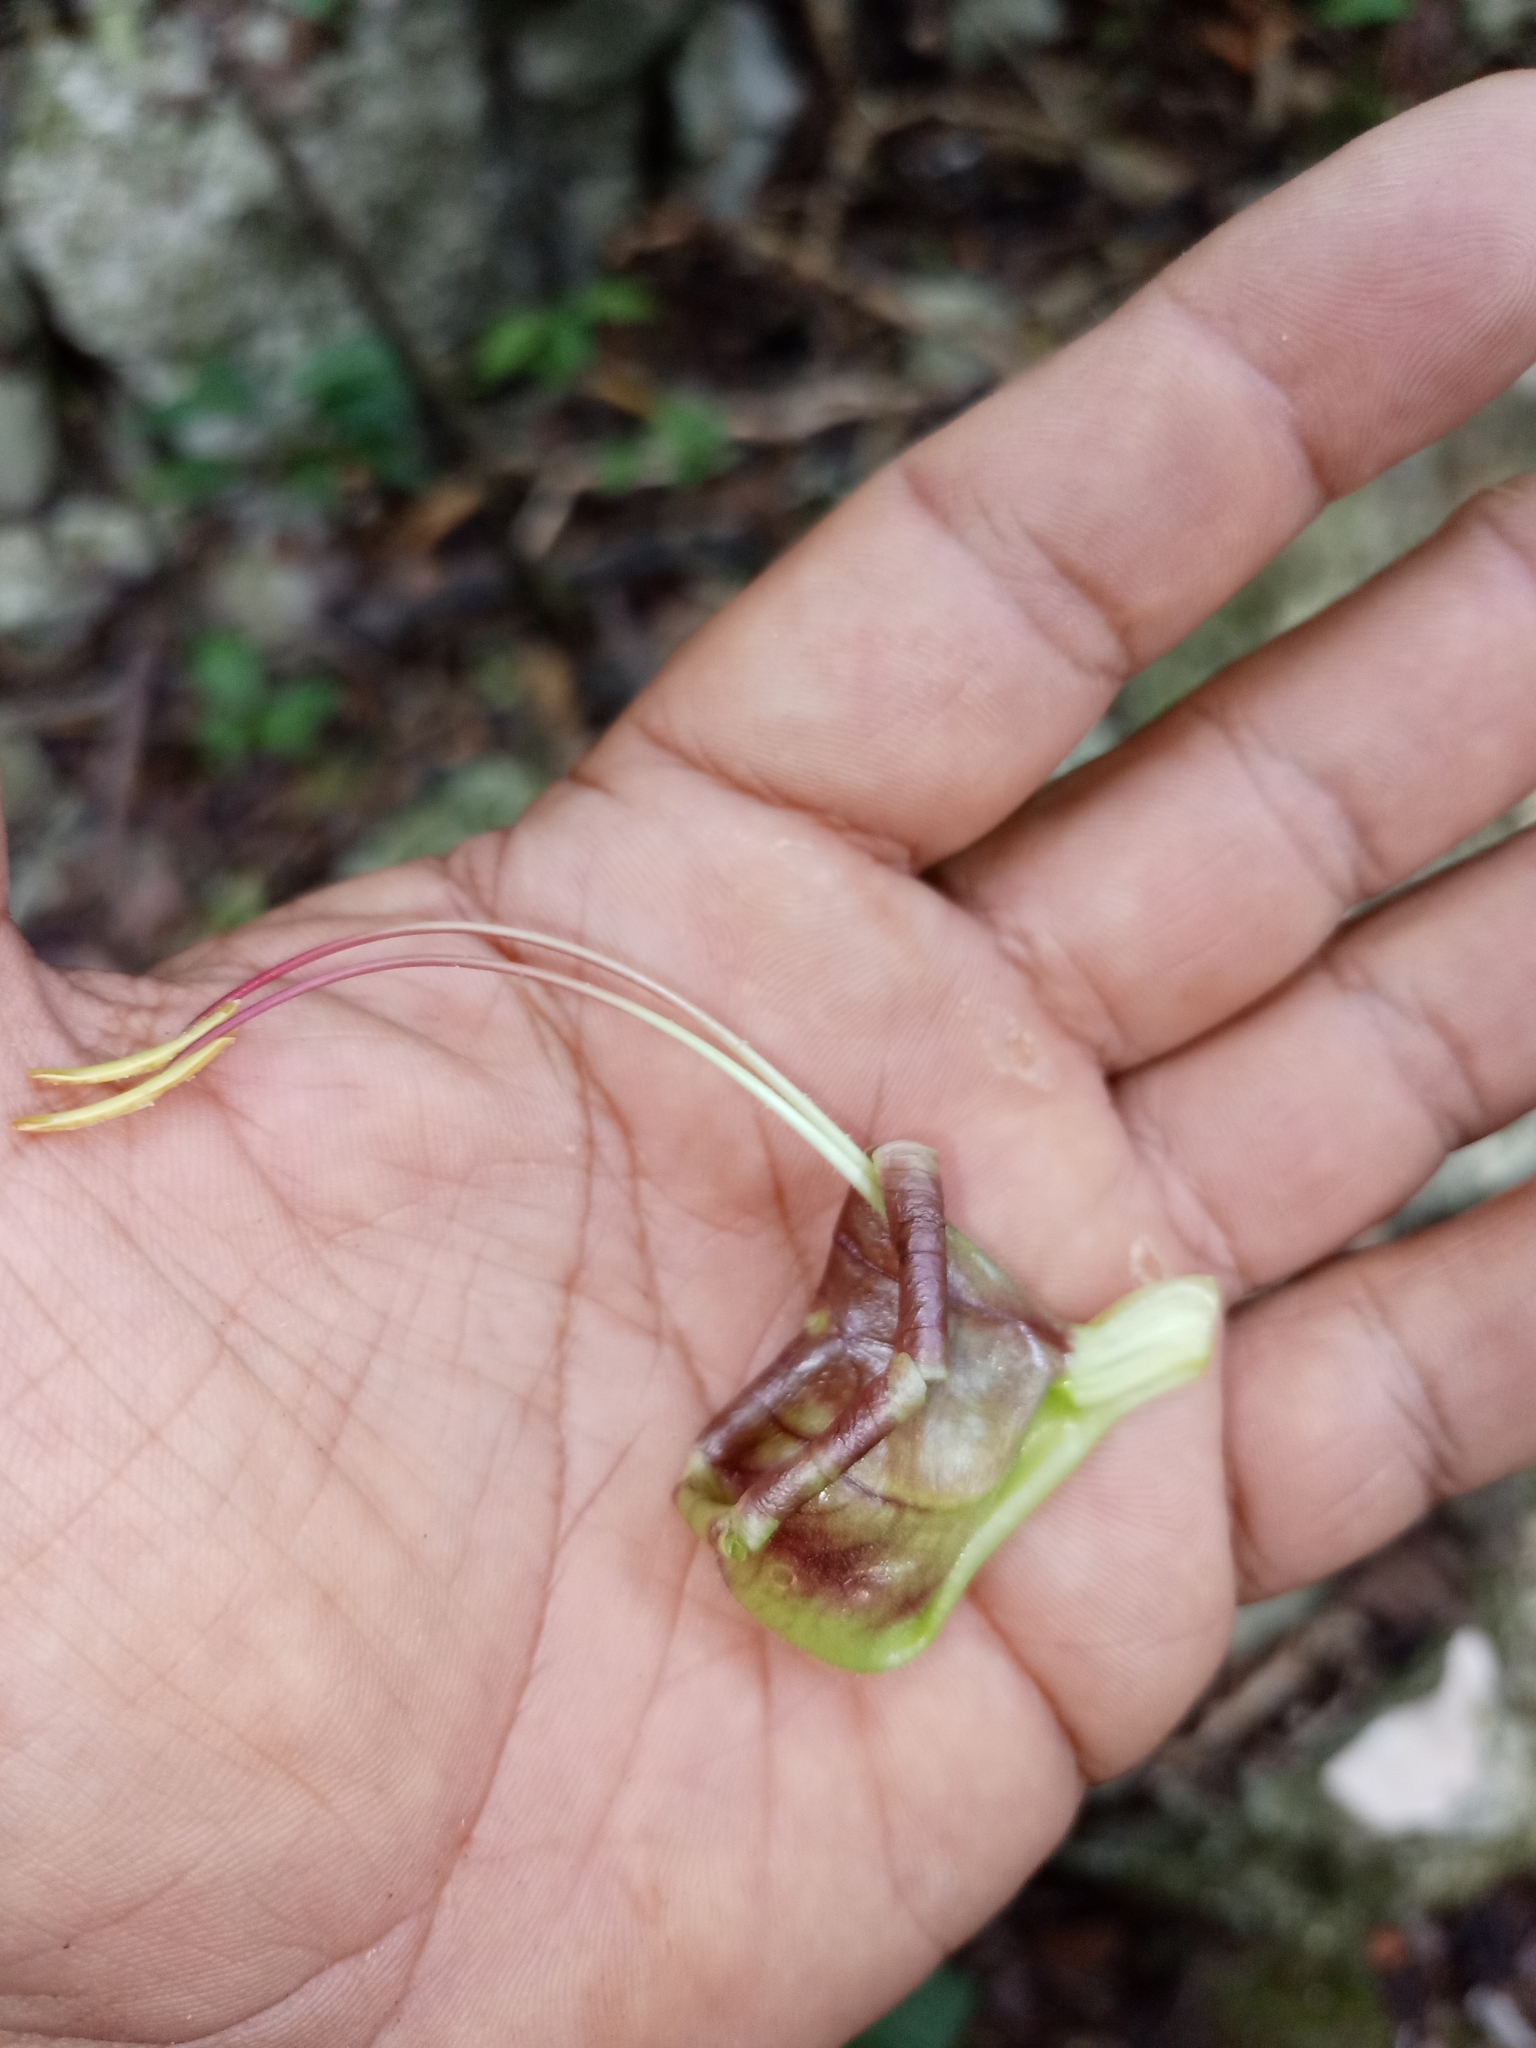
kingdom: Plantae
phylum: Tracheophyta
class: Magnoliopsida
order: Lamiales
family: Acanthaceae
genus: Louteridium
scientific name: Louteridium donnell-smithii
